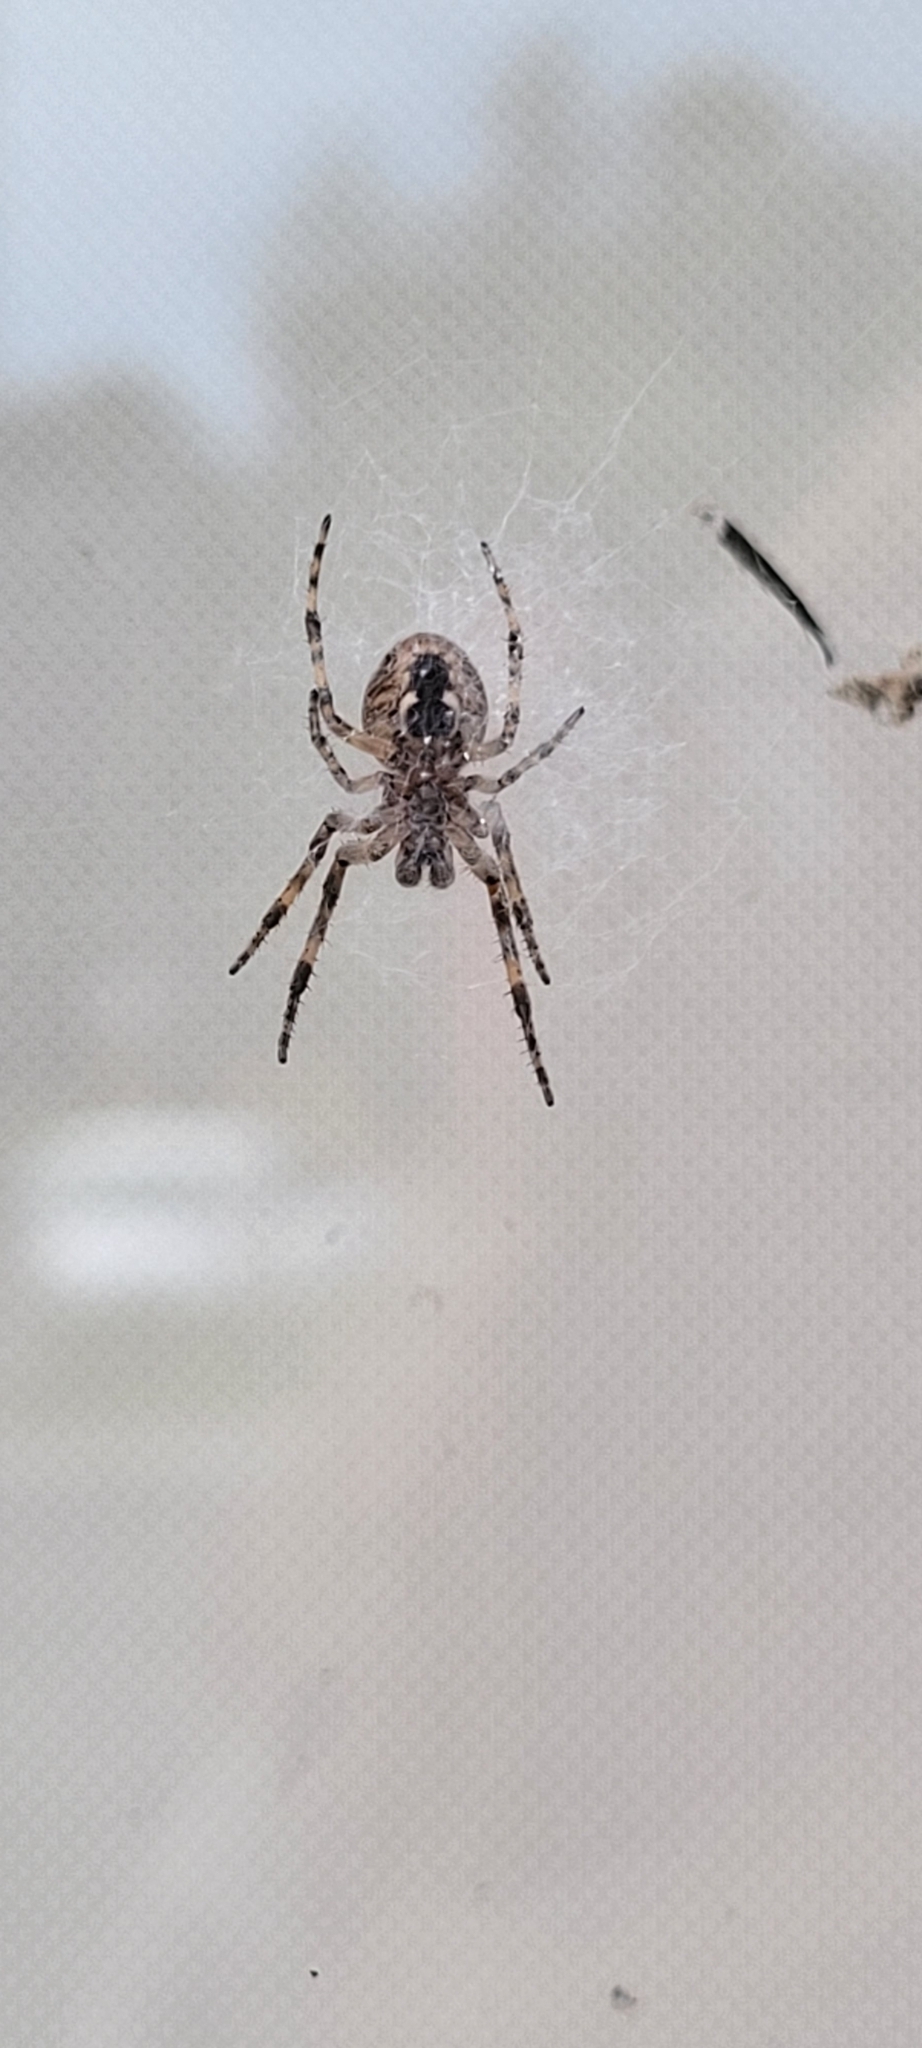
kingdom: Animalia
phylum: Arthropoda
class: Arachnida
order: Araneae
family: Araneidae
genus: Larinioides
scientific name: Larinioides sclopetarius
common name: Bridge orbweaver
